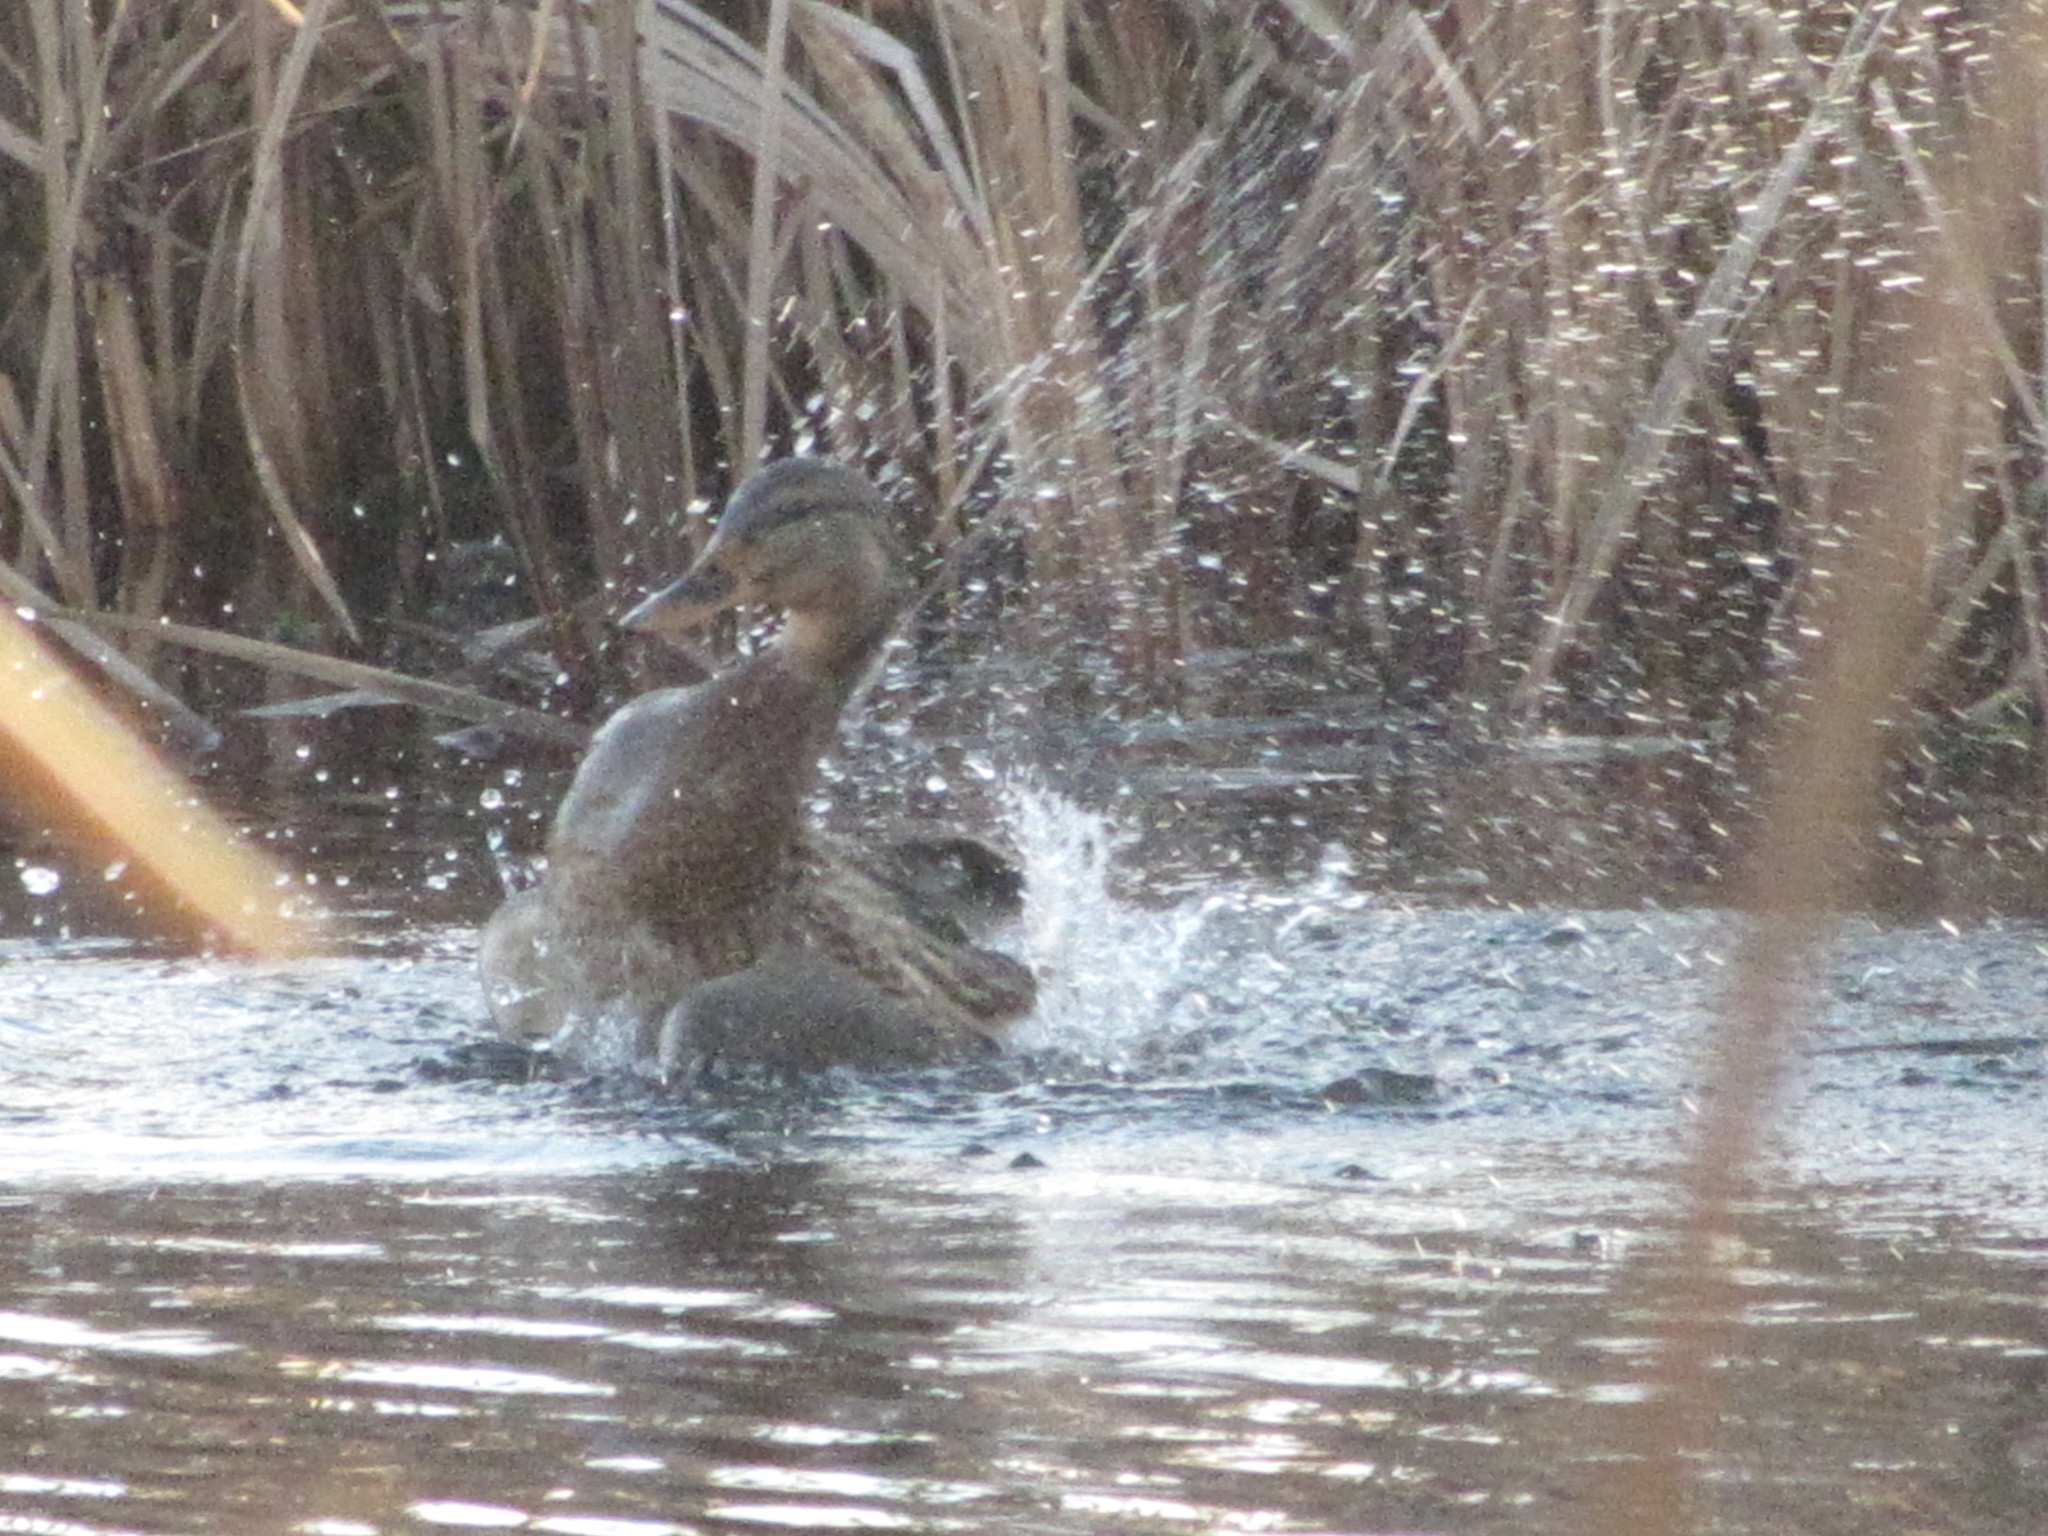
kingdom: Animalia
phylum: Chordata
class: Aves
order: Anseriformes
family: Anatidae
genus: Anas
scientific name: Anas platyrhynchos
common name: Mallard
